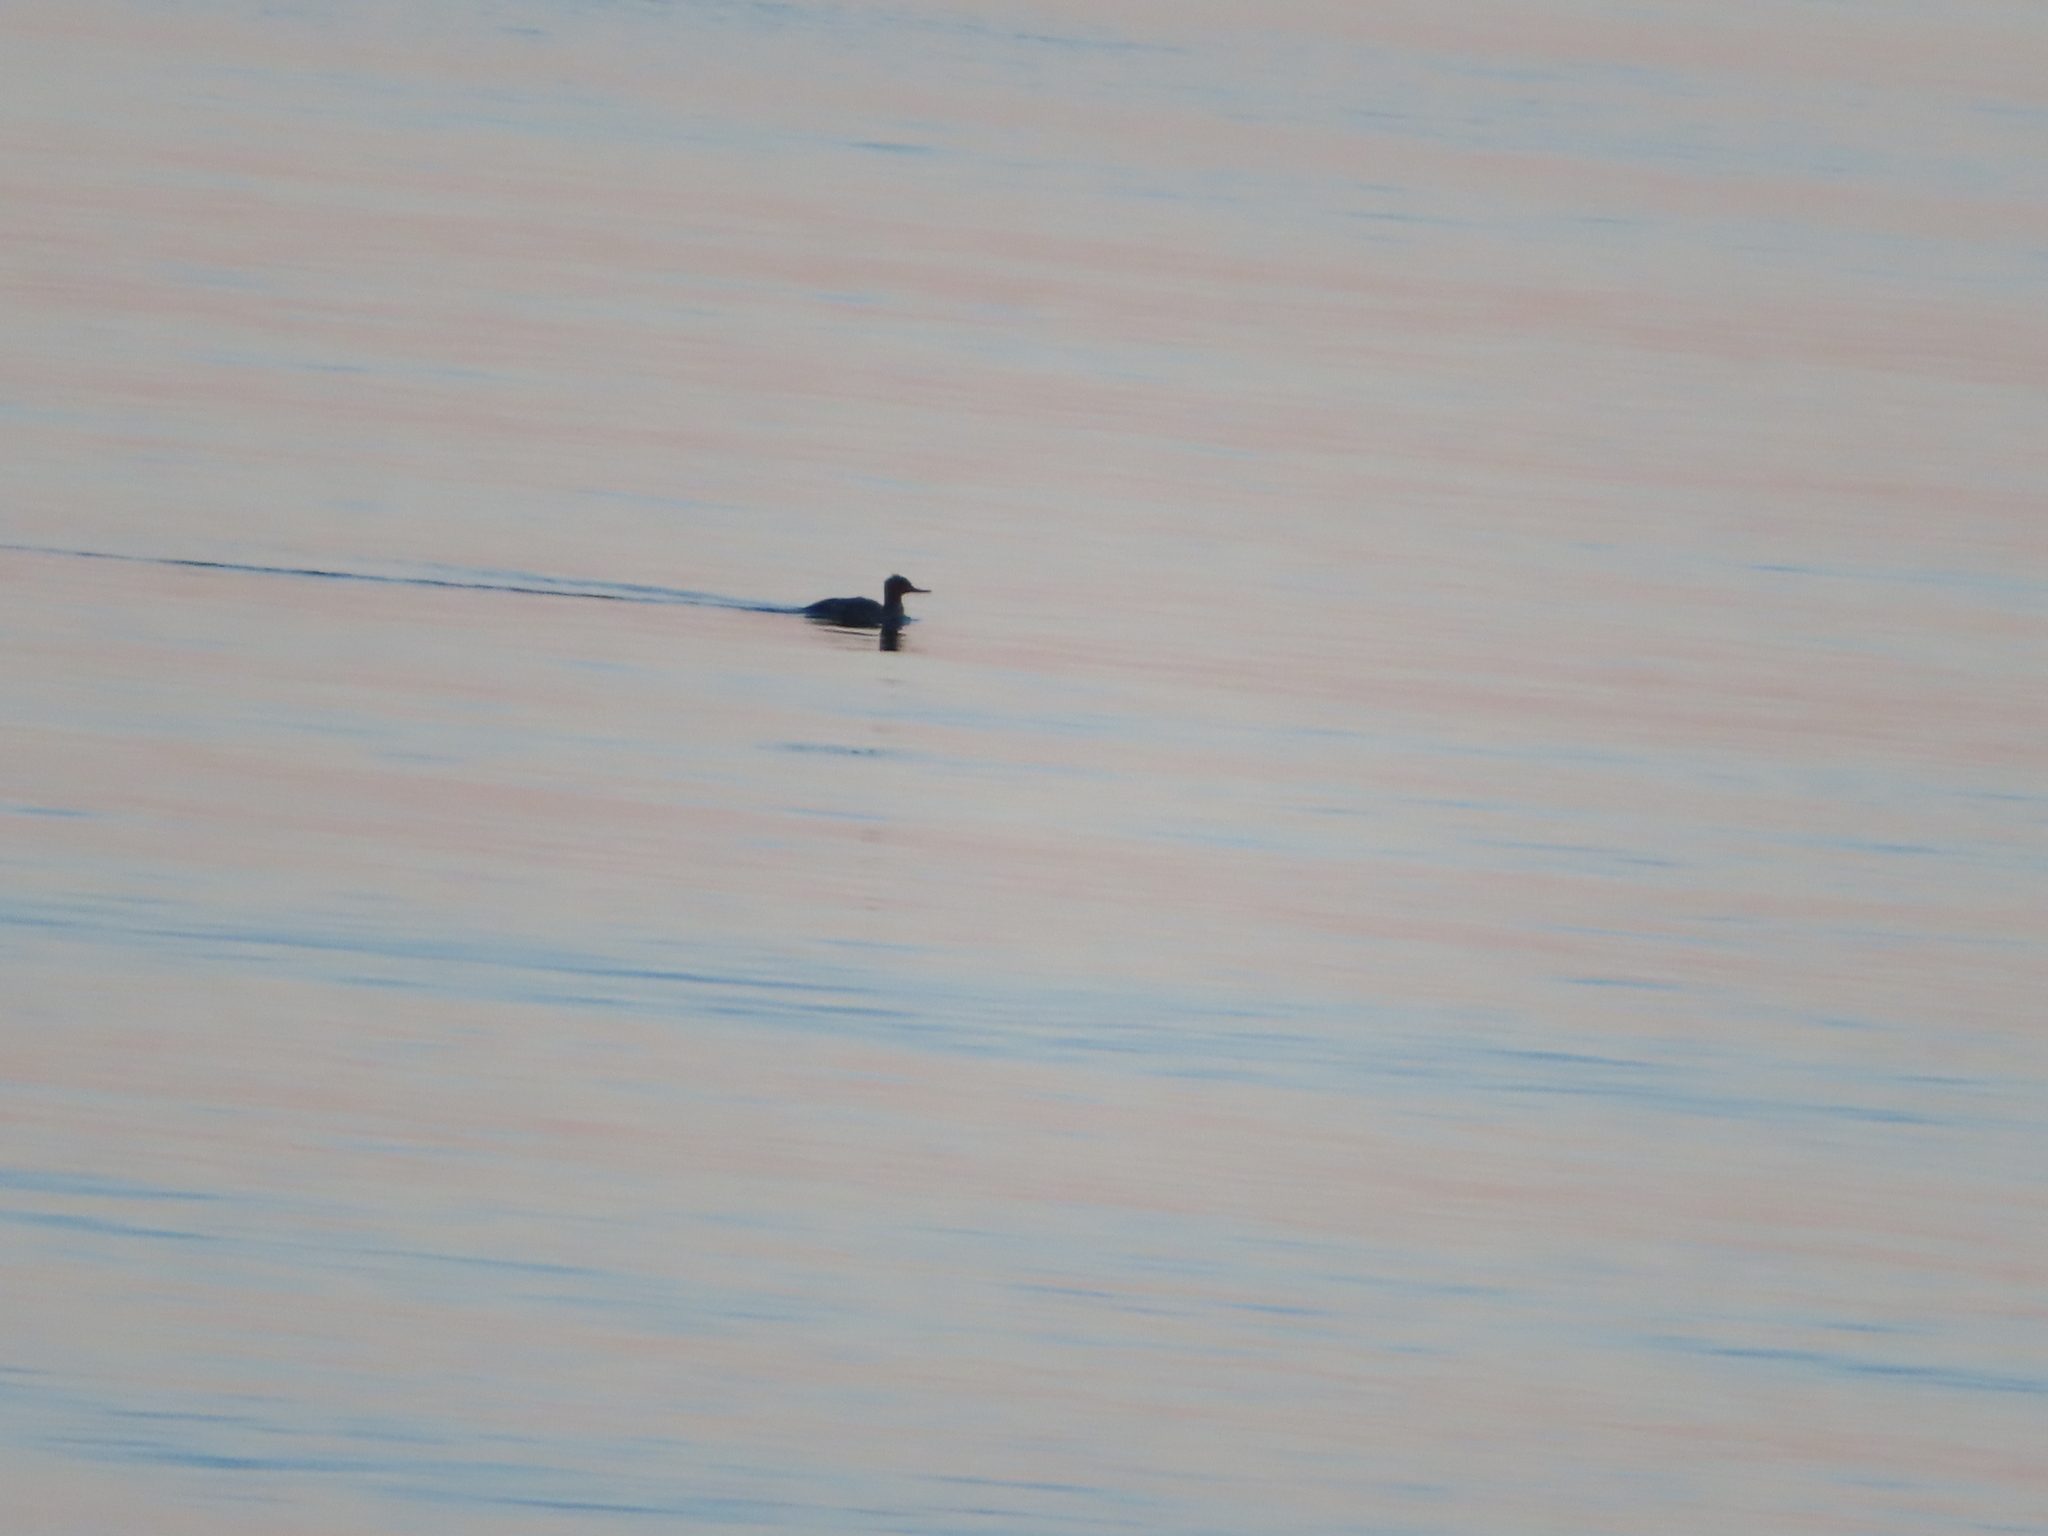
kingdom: Animalia
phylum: Chordata
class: Aves
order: Anseriformes
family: Anatidae
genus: Mergus
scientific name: Mergus serrator
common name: Red-breasted merganser
